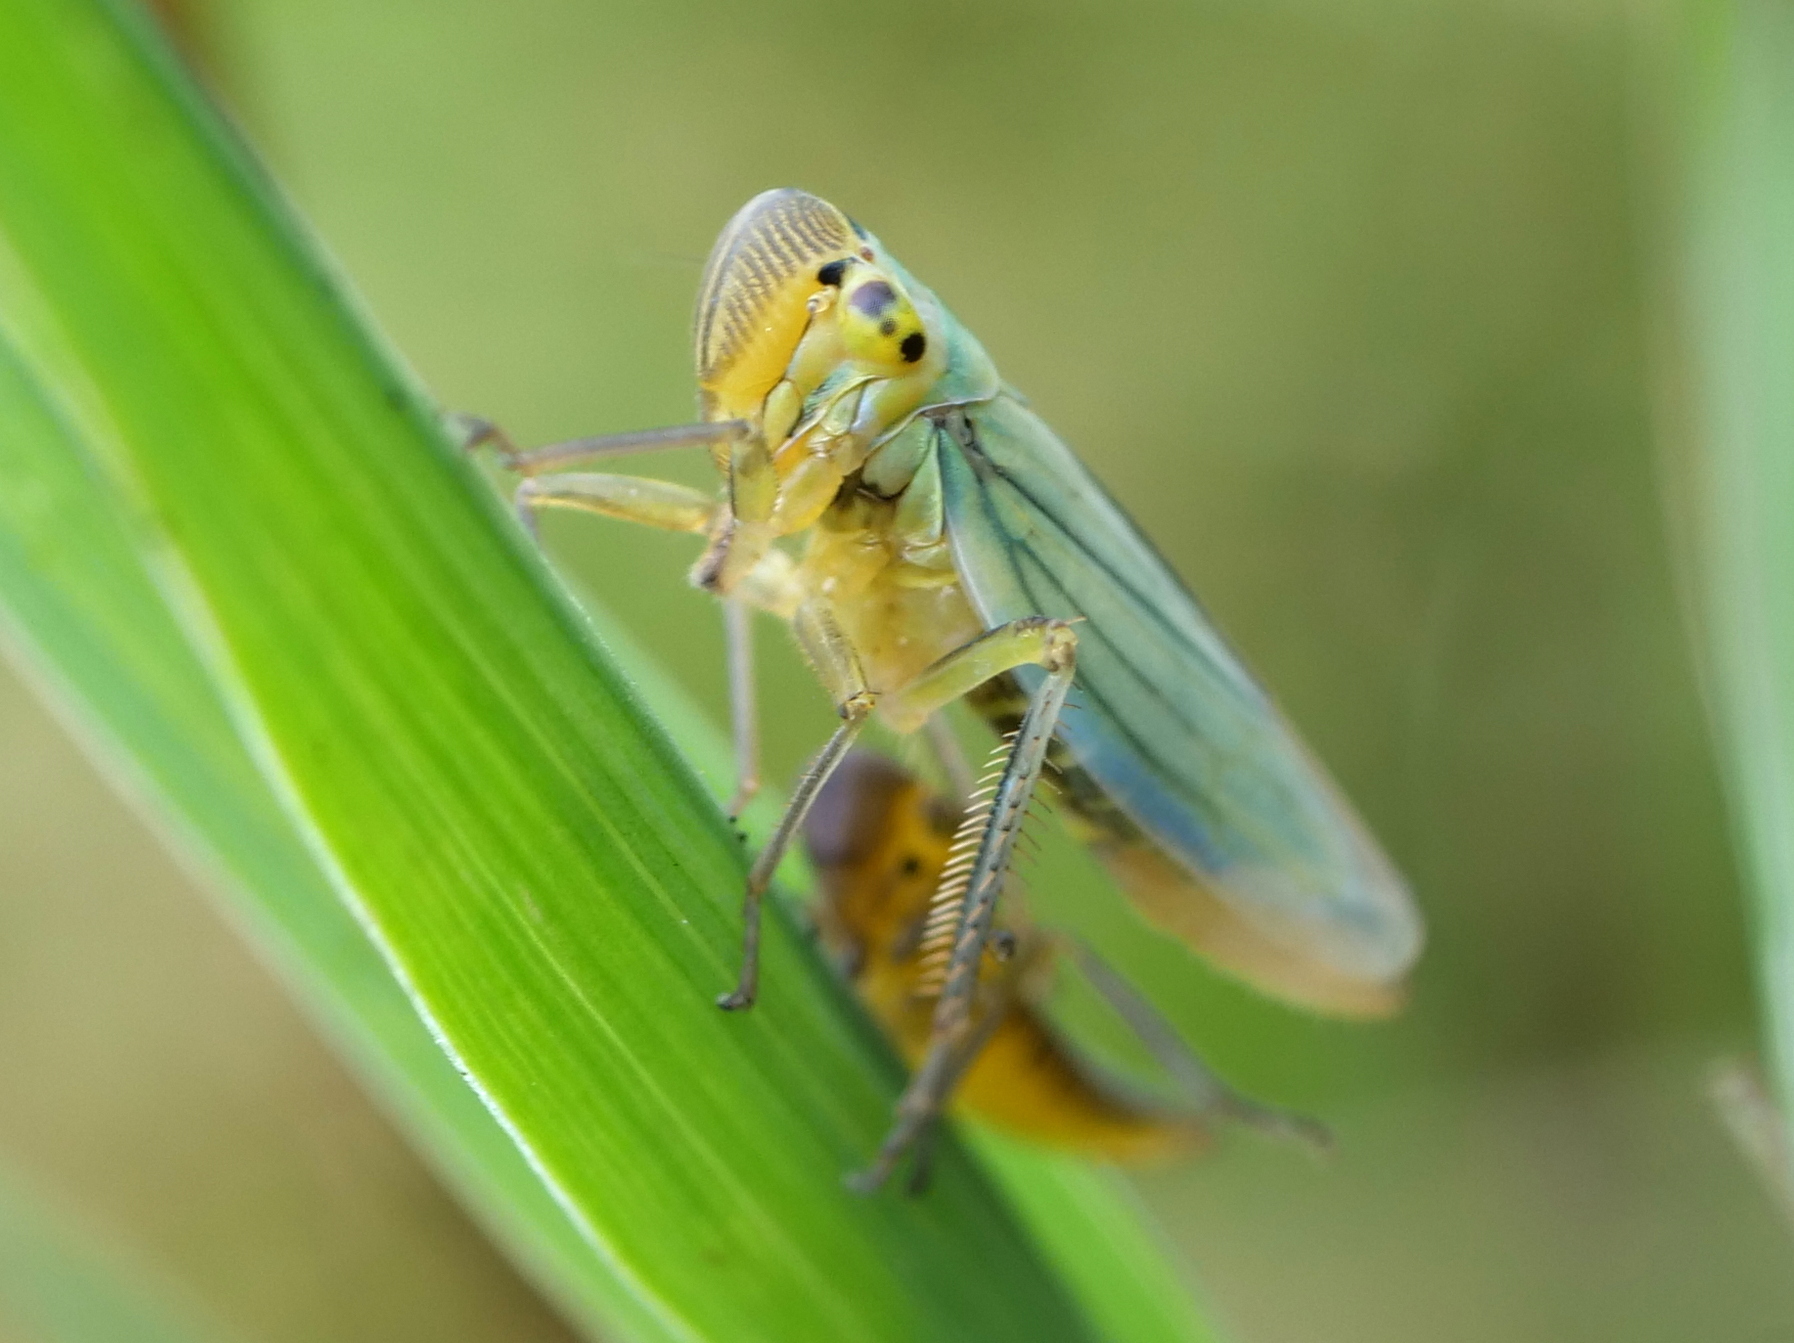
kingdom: Animalia
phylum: Arthropoda
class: Insecta
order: Hemiptera
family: Cicadellidae
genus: Cicadella
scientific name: Cicadella viridis
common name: Leafhopper
